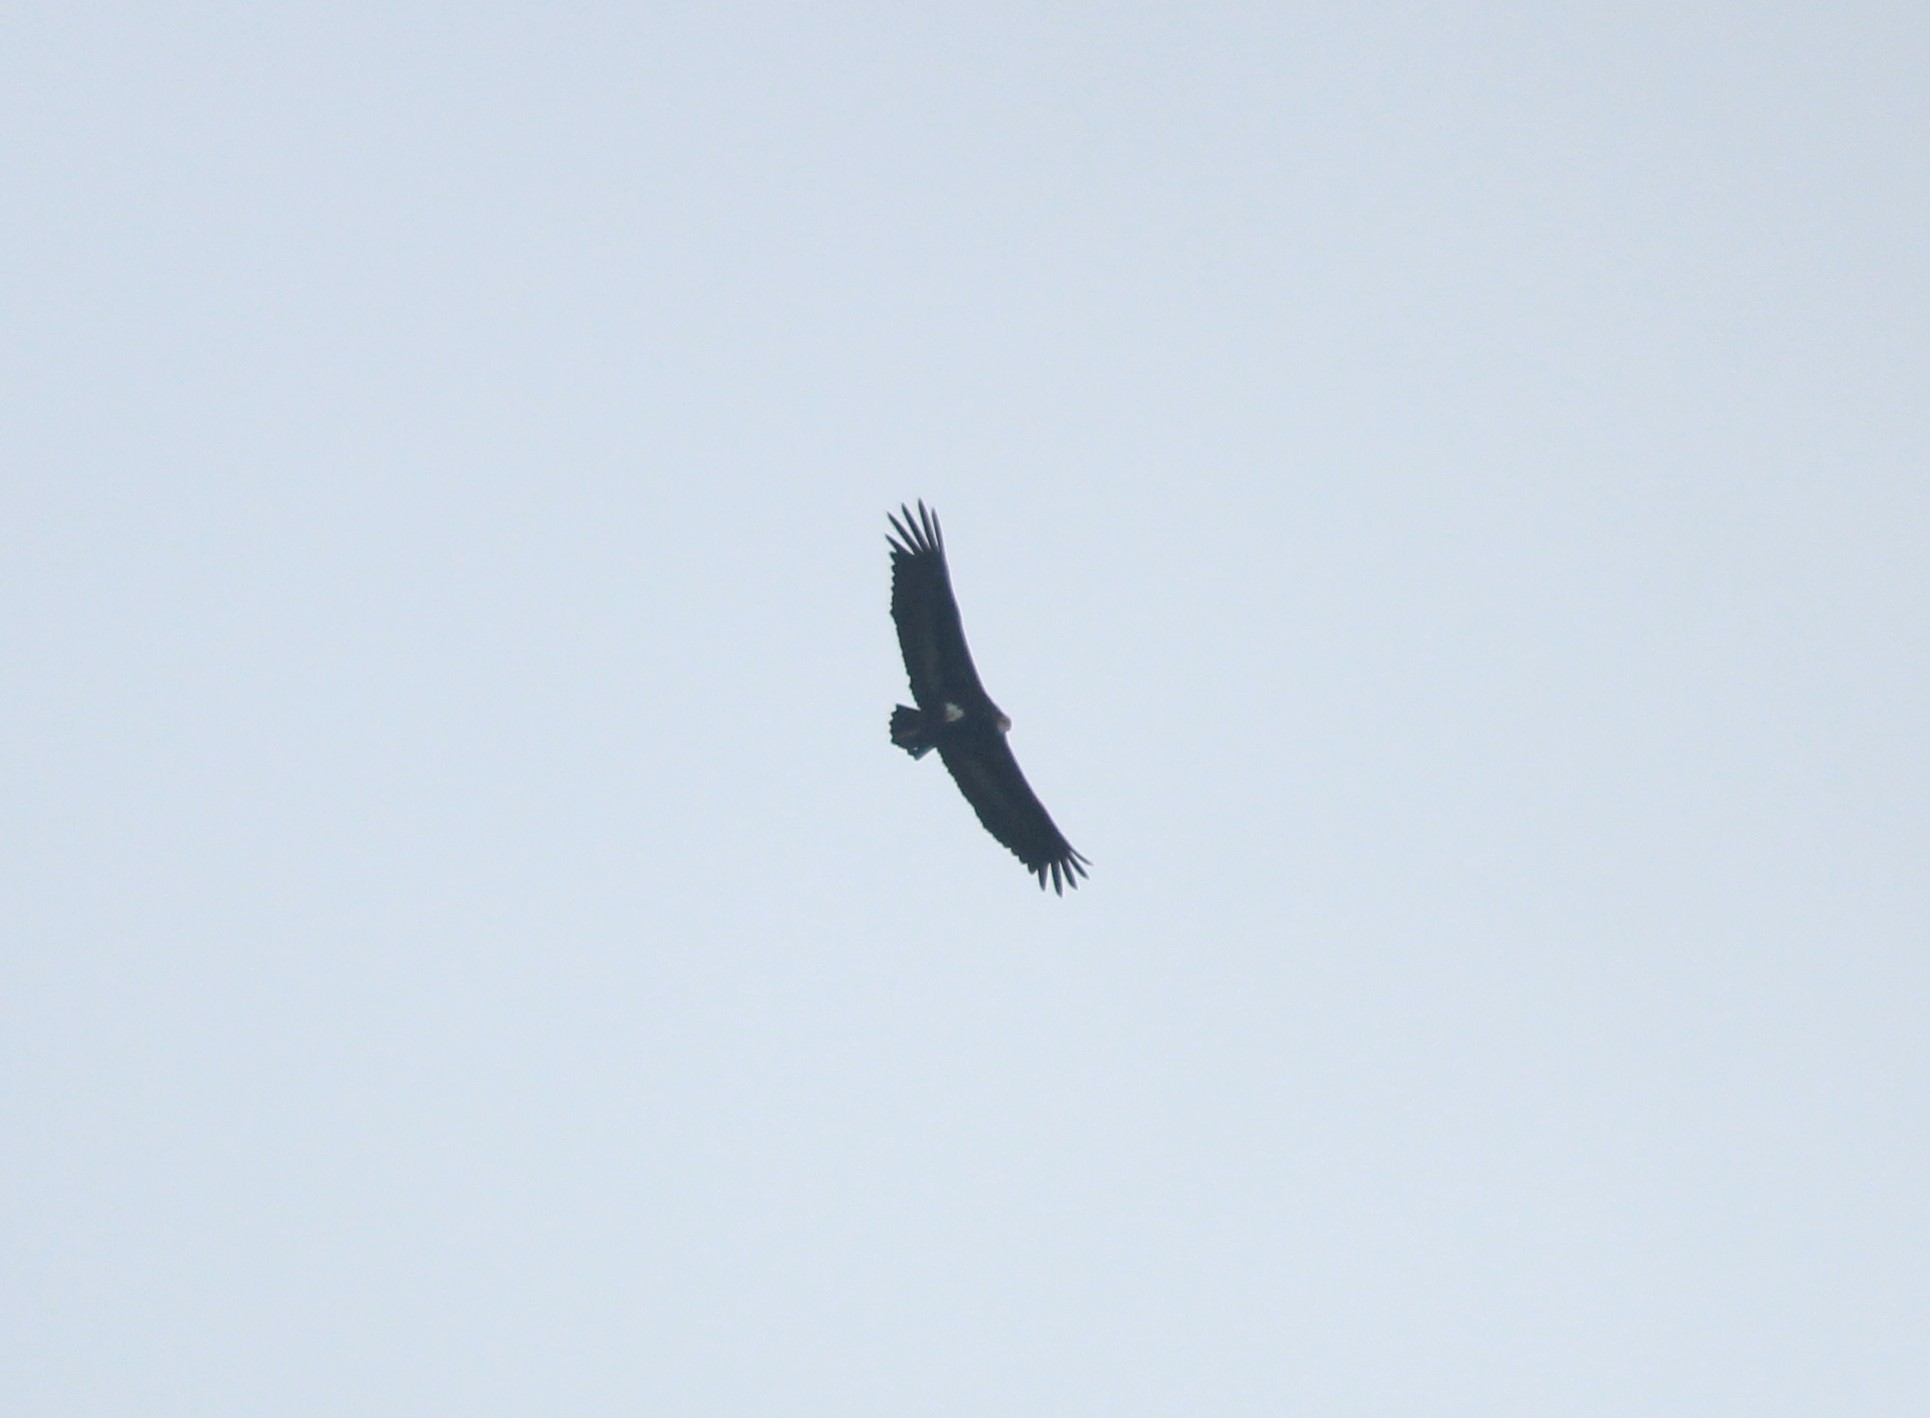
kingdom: Animalia
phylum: Chordata
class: Aves
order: Accipitriformes
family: Accipitridae
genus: Sarcogyps
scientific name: Sarcogyps calvus
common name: Red-headed vulture
